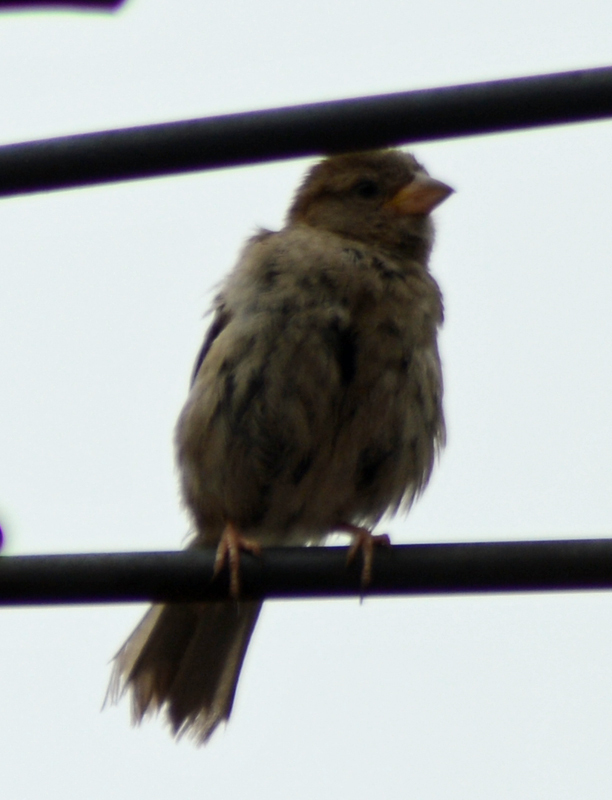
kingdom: Animalia
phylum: Chordata
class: Aves
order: Passeriformes
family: Passeridae
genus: Passer
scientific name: Passer domesticus
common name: House sparrow
